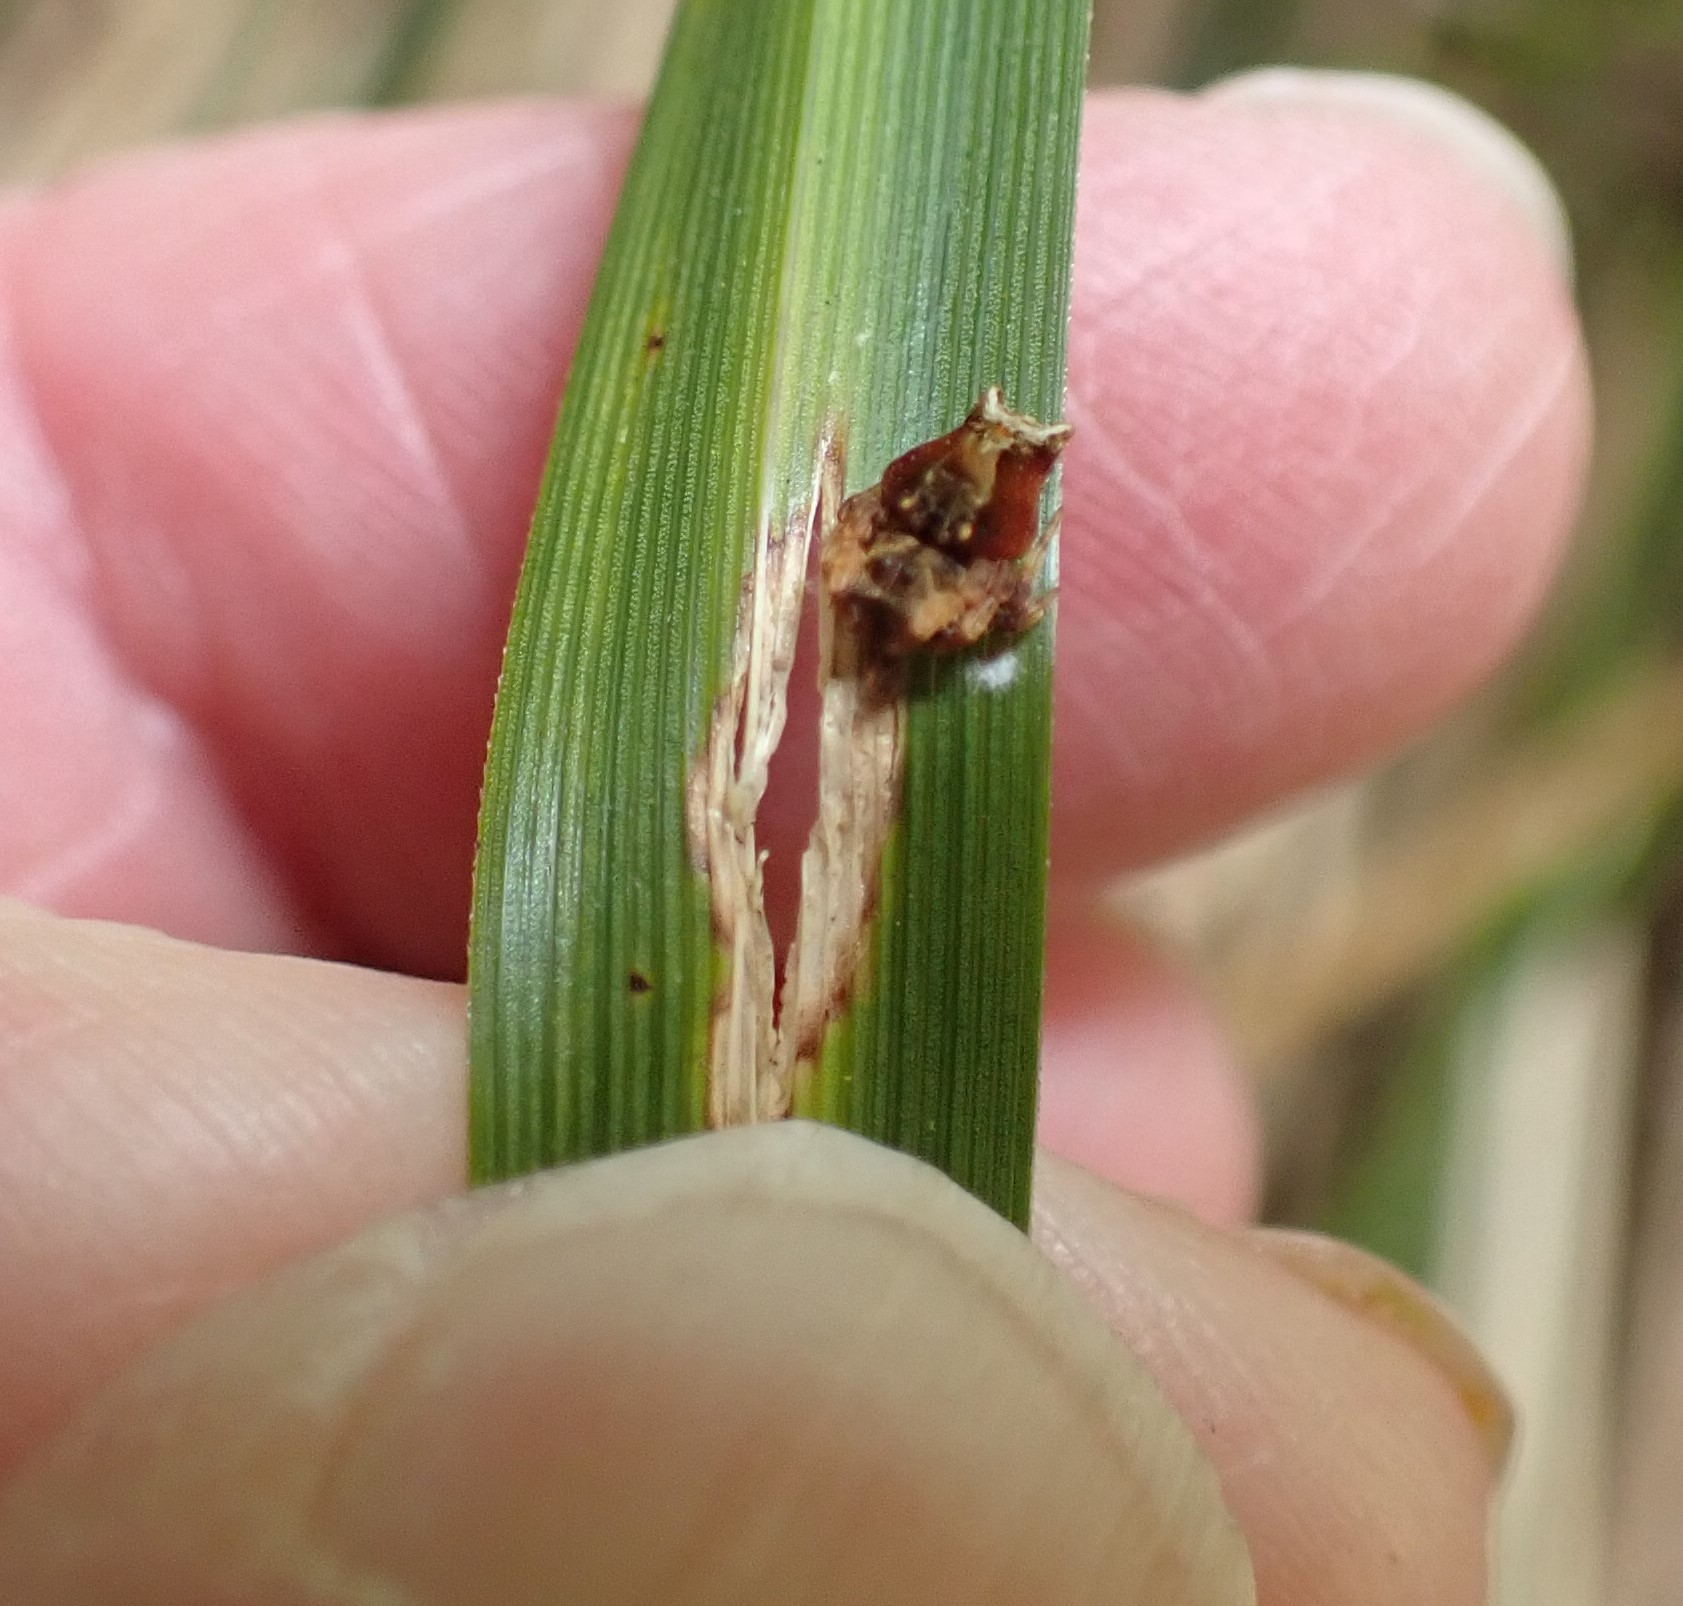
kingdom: Animalia
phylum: Arthropoda
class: Arachnida
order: Araneae
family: Arkyidae
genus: Arkys
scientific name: Arkys alticephala
